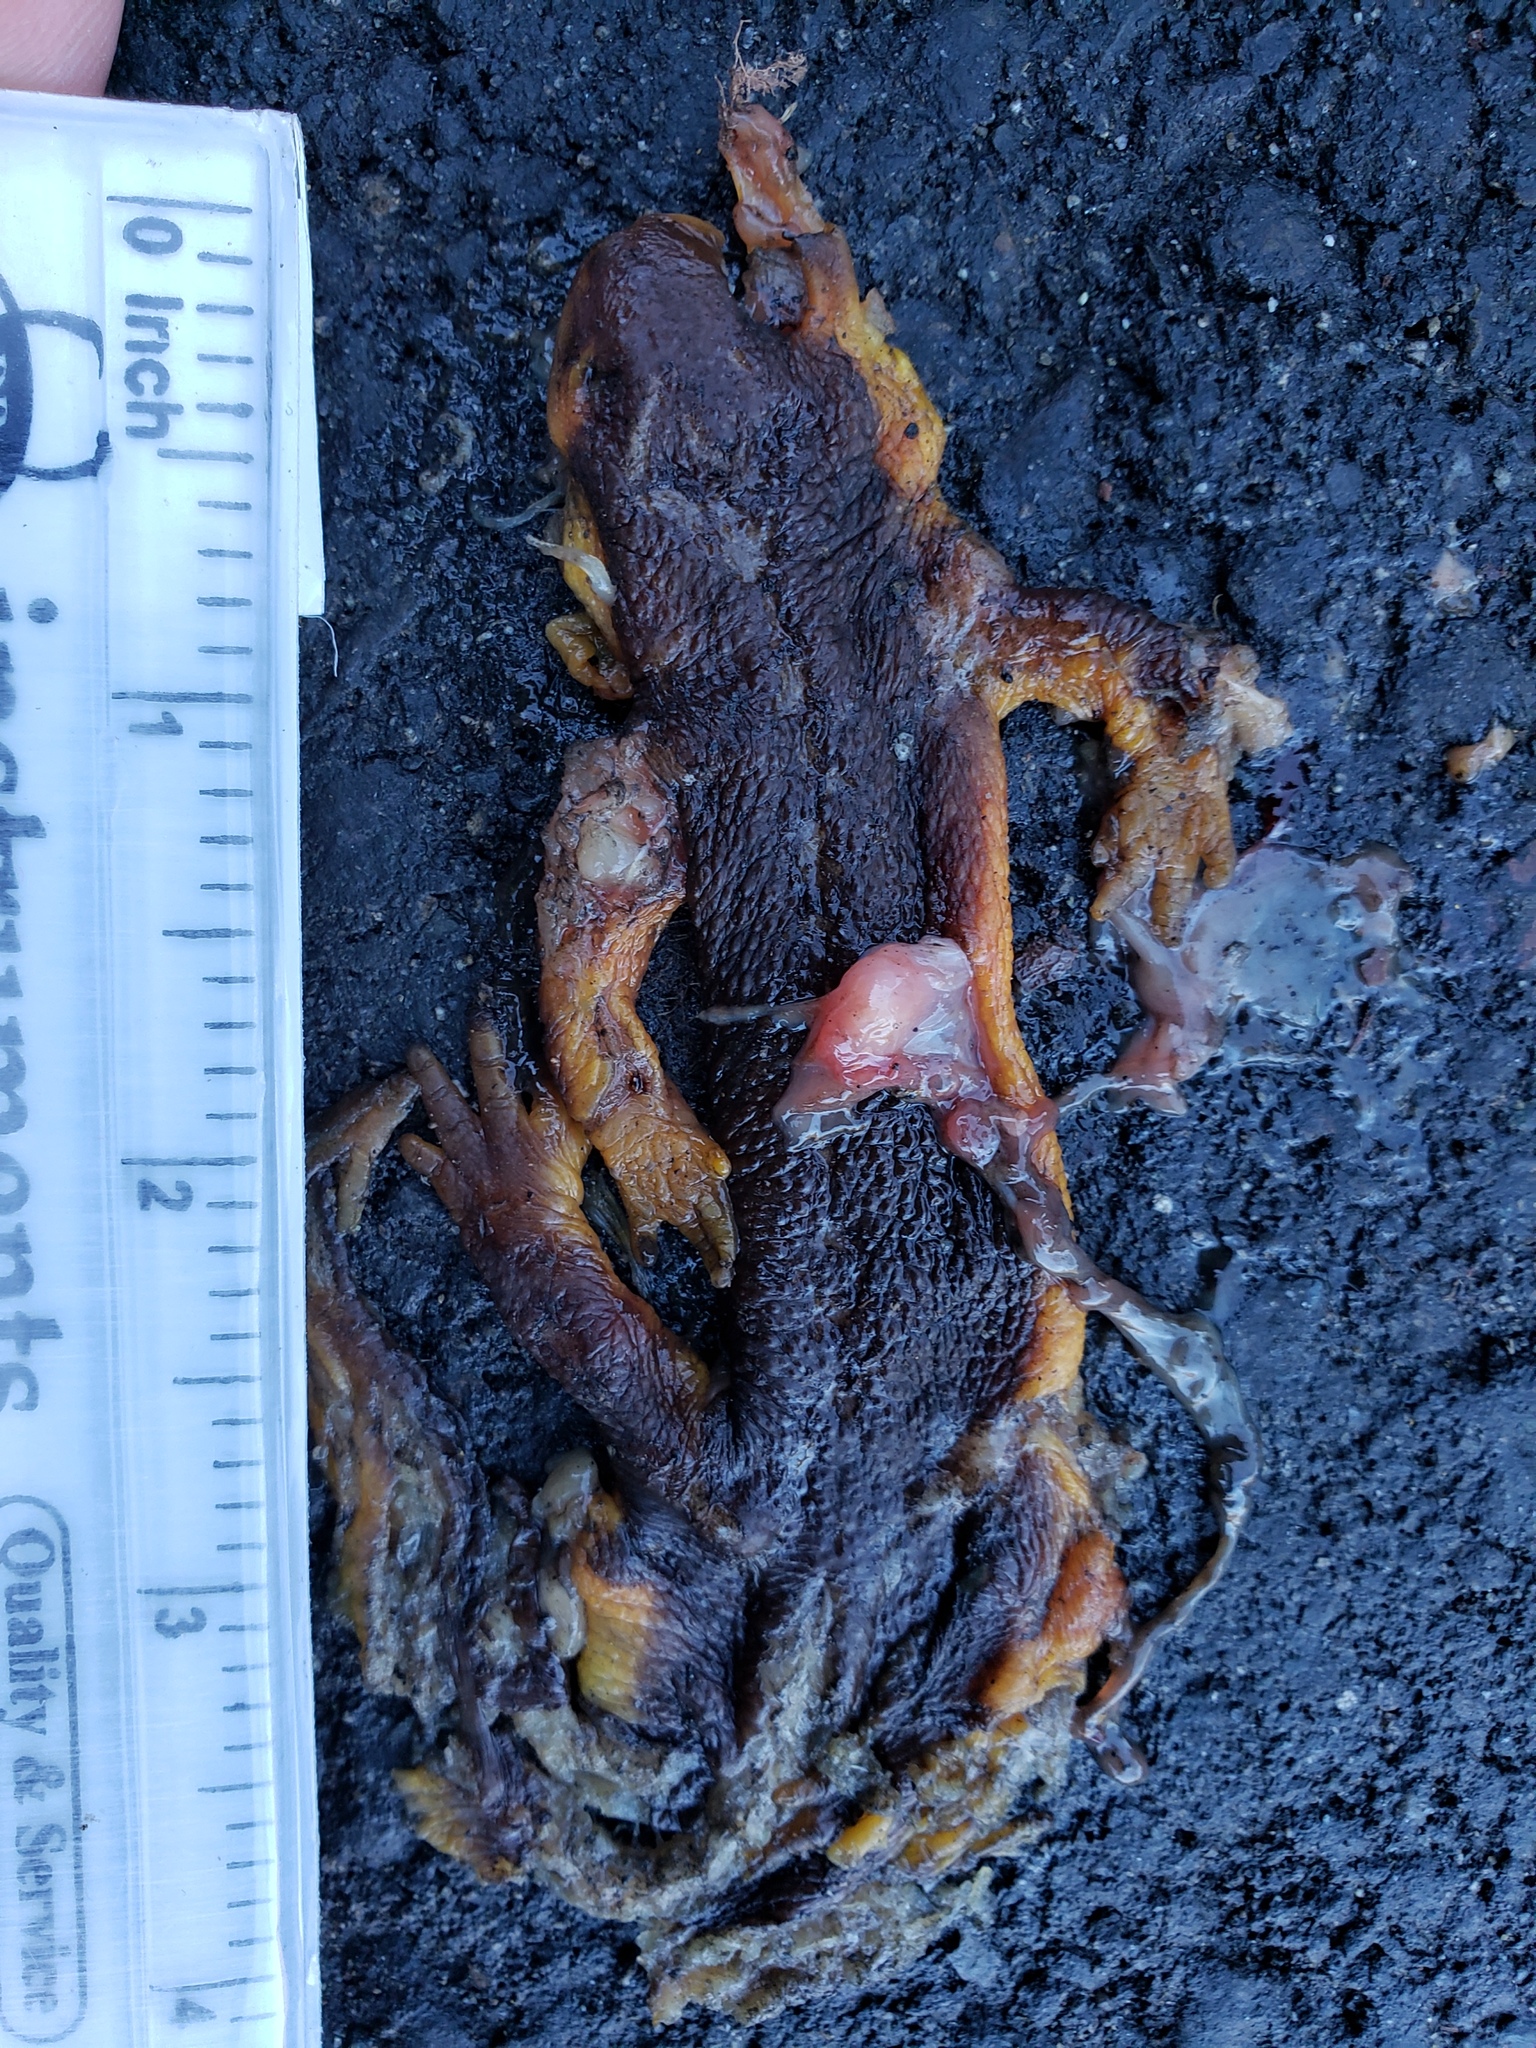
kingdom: Animalia
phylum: Chordata
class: Amphibia
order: Caudata
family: Salamandridae
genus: Taricha
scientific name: Taricha
